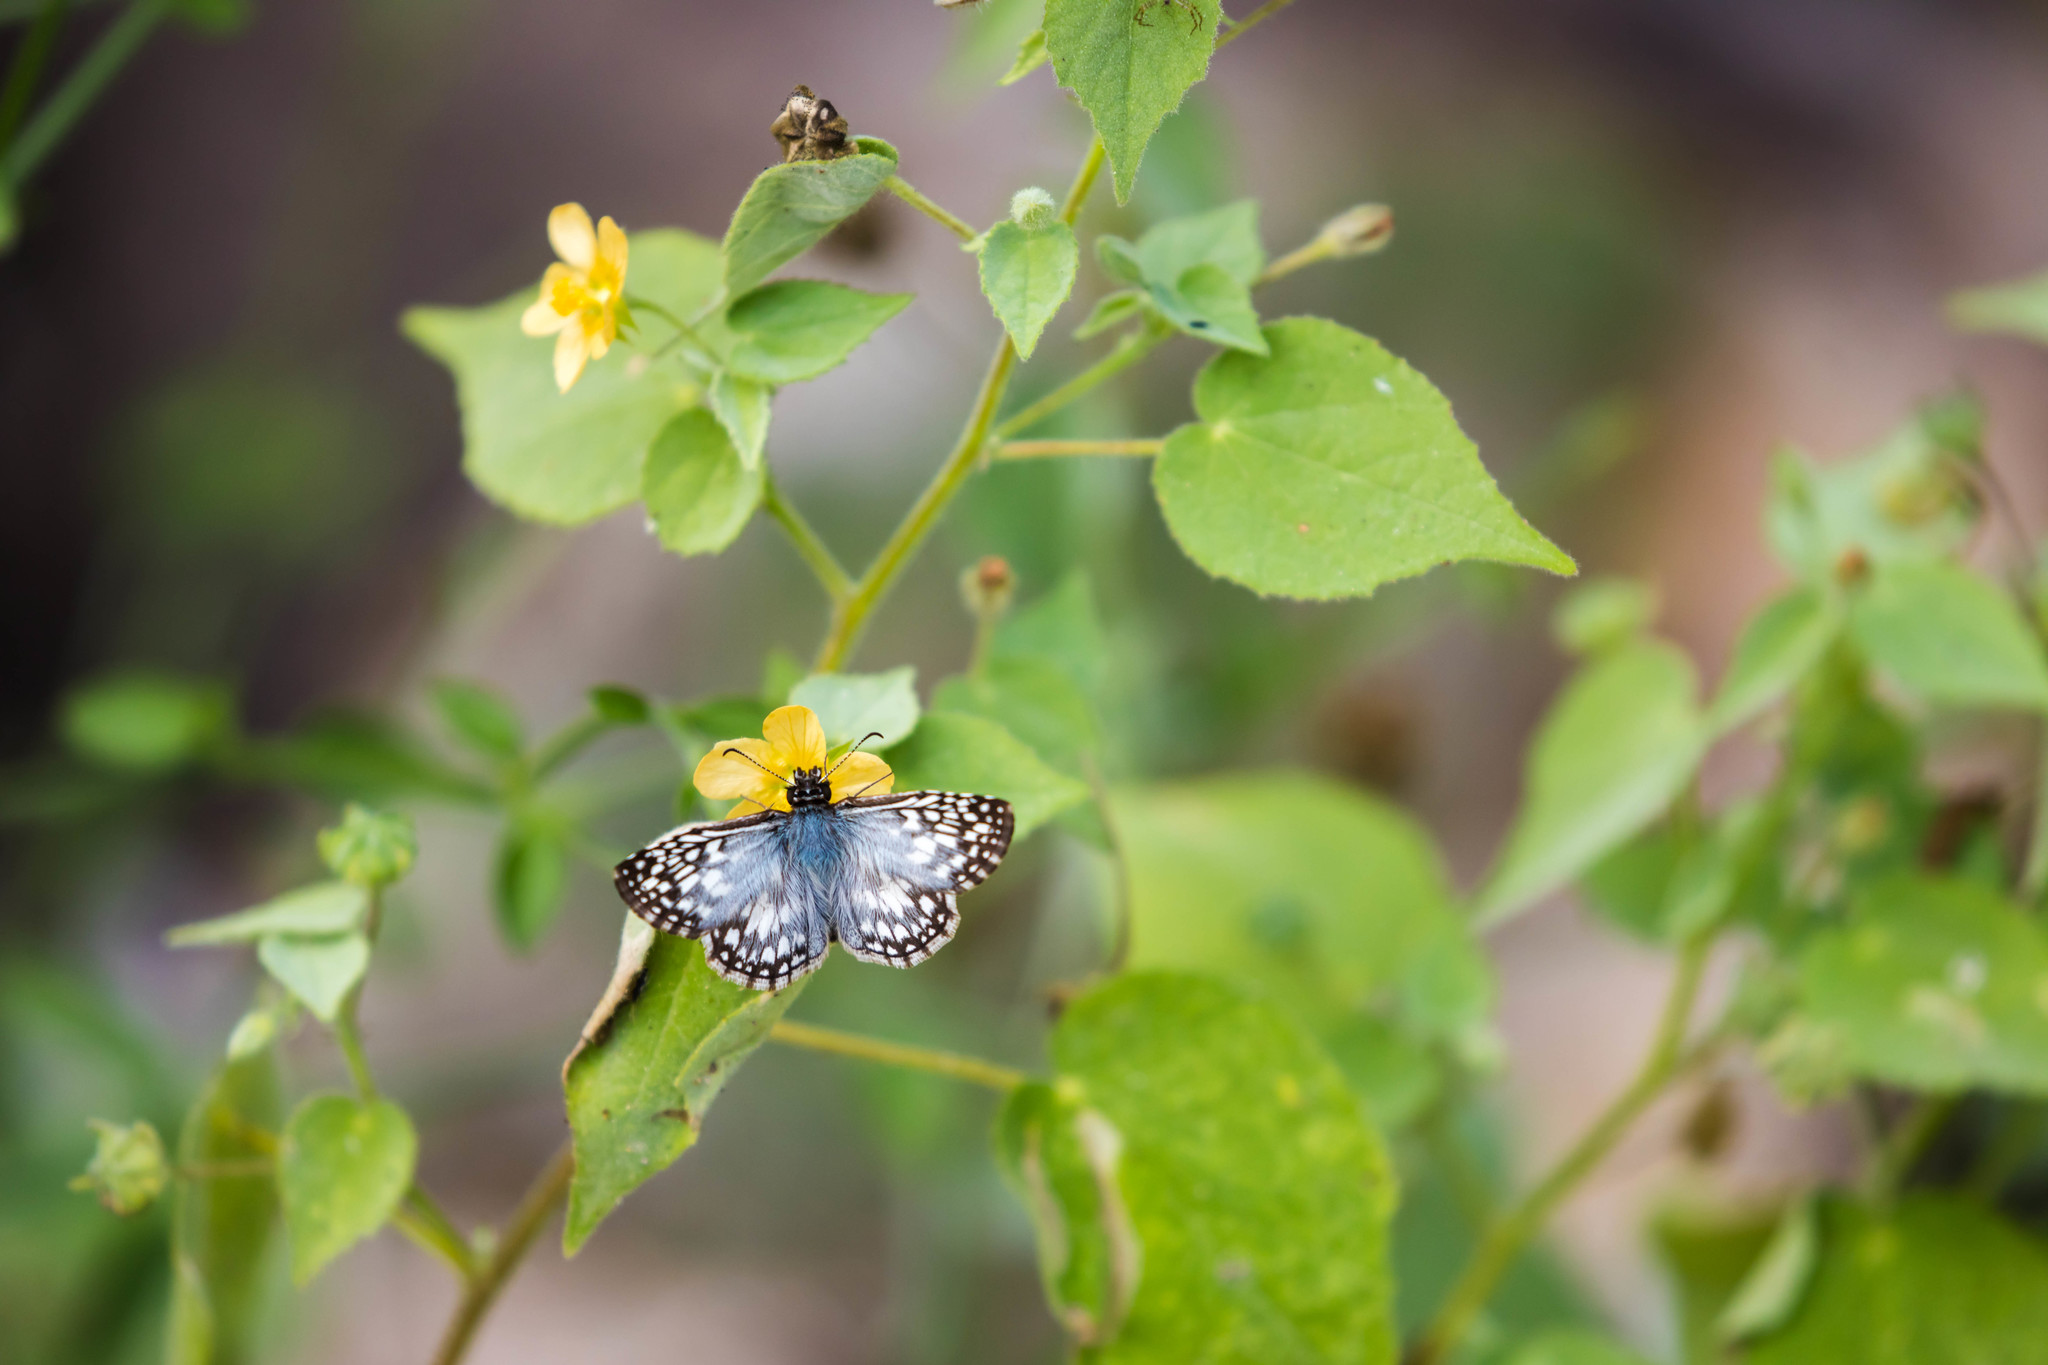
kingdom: Animalia
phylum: Arthropoda
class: Insecta
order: Lepidoptera
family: Hesperiidae
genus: Pyrgus
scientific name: Pyrgus oileus
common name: Tropical checkered-skipper
